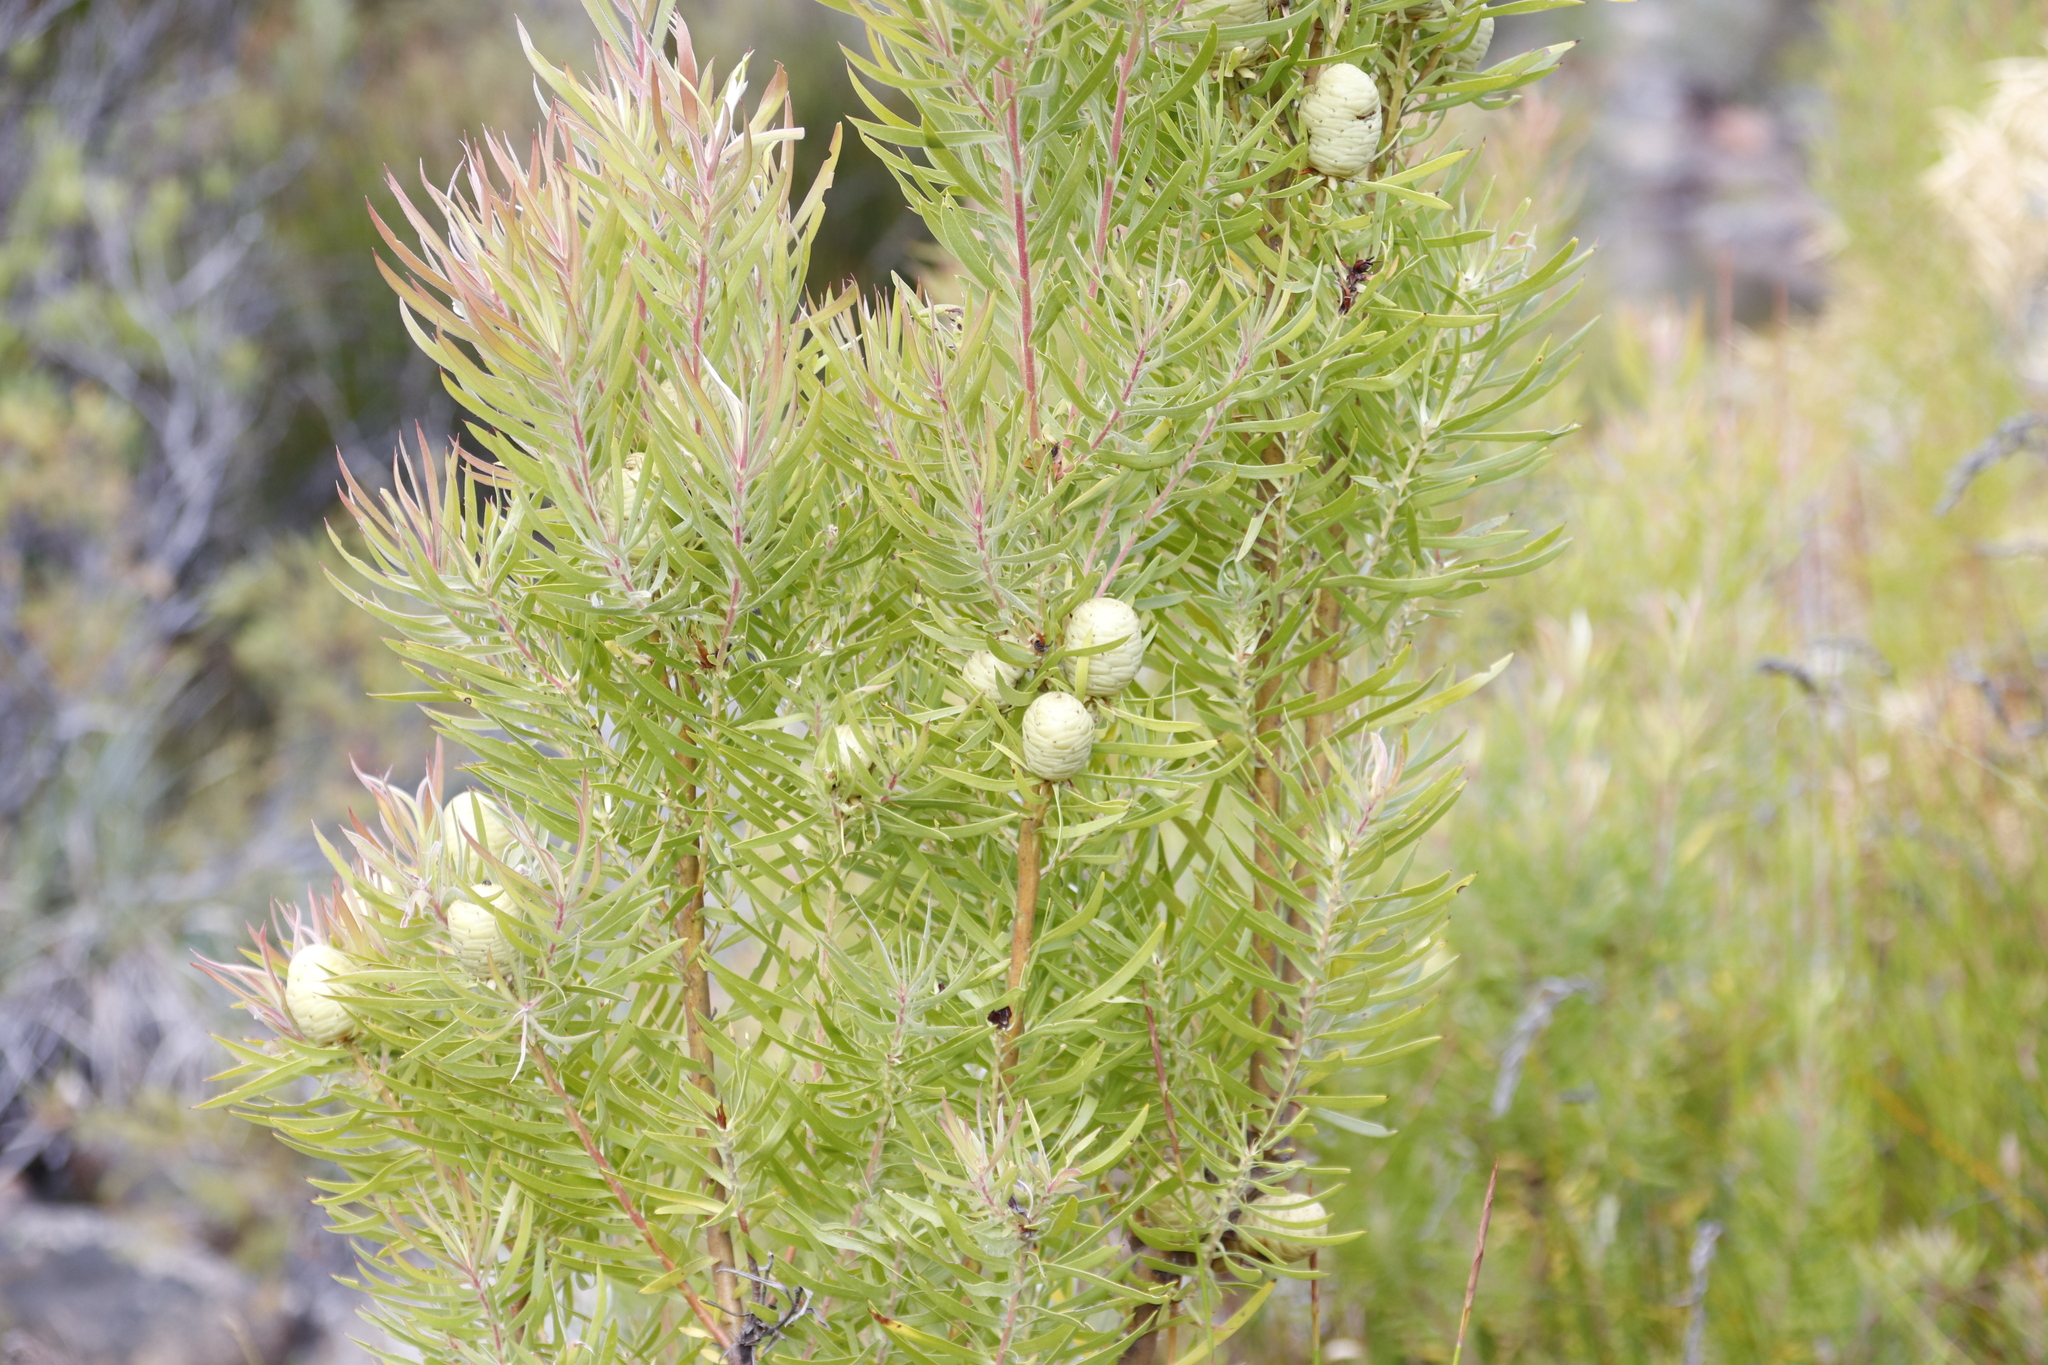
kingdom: Plantae
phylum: Tracheophyta
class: Magnoliopsida
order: Proteales
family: Proteaceae
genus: Leucadendron
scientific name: Leucadendron salicifolium
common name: Common stream conebush
